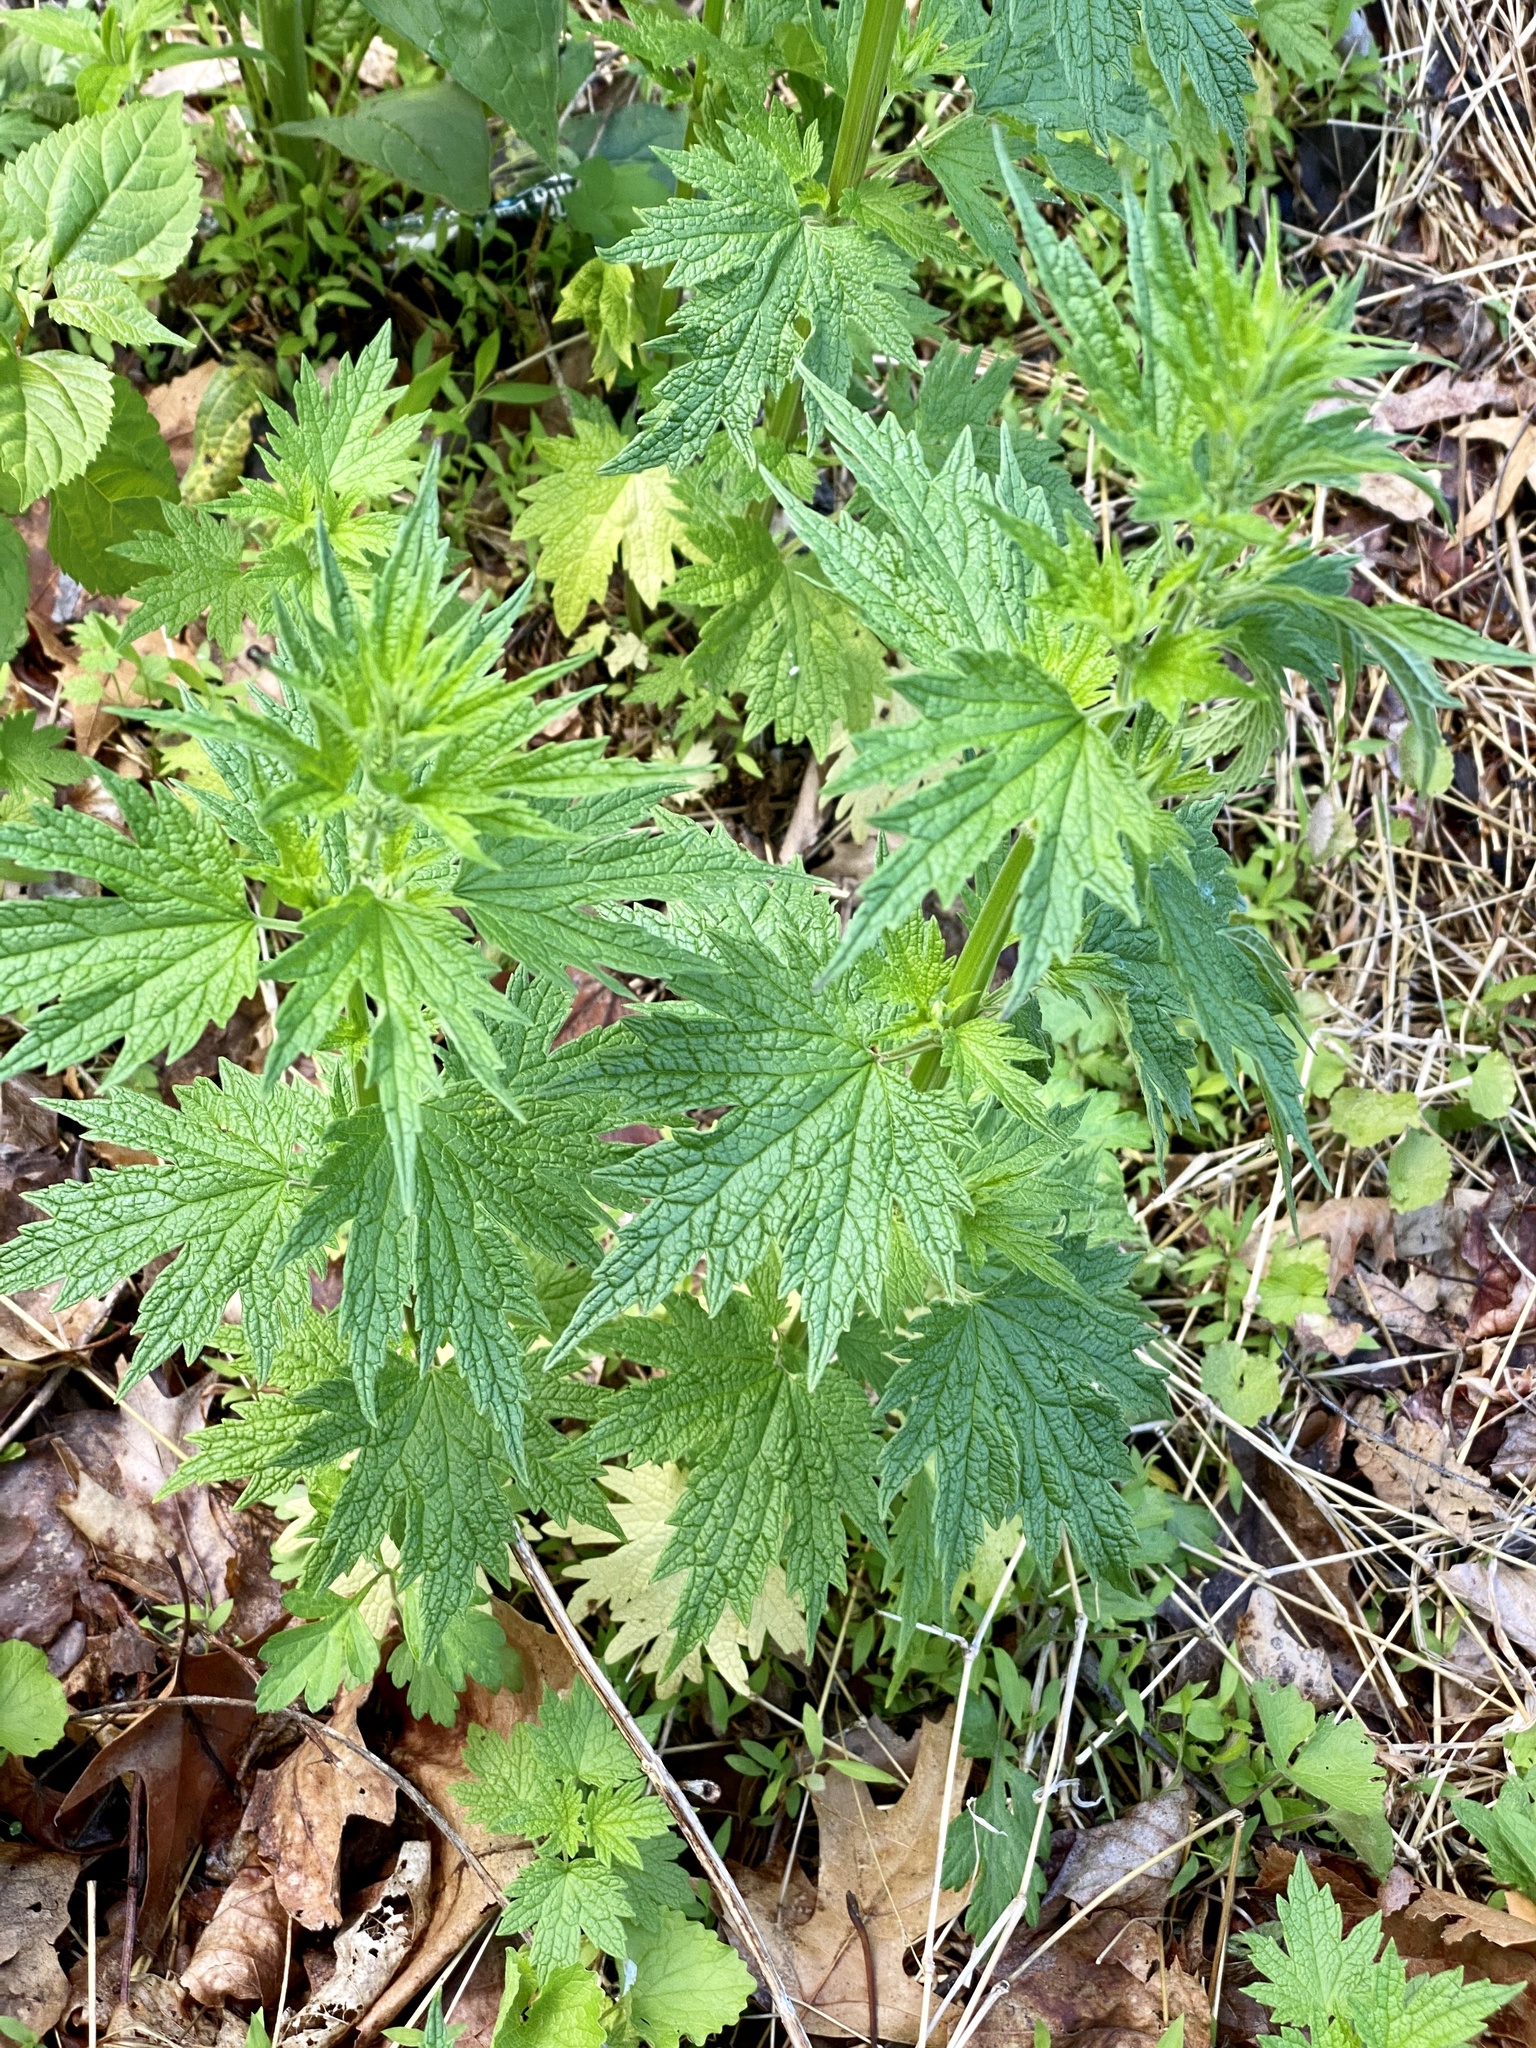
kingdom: Plantae
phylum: Tracheophyta
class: Magnoliopsida
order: Lamiales
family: Lamiaceae
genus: Leonurus
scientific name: Leonurus cardiaca
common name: Motherwort
